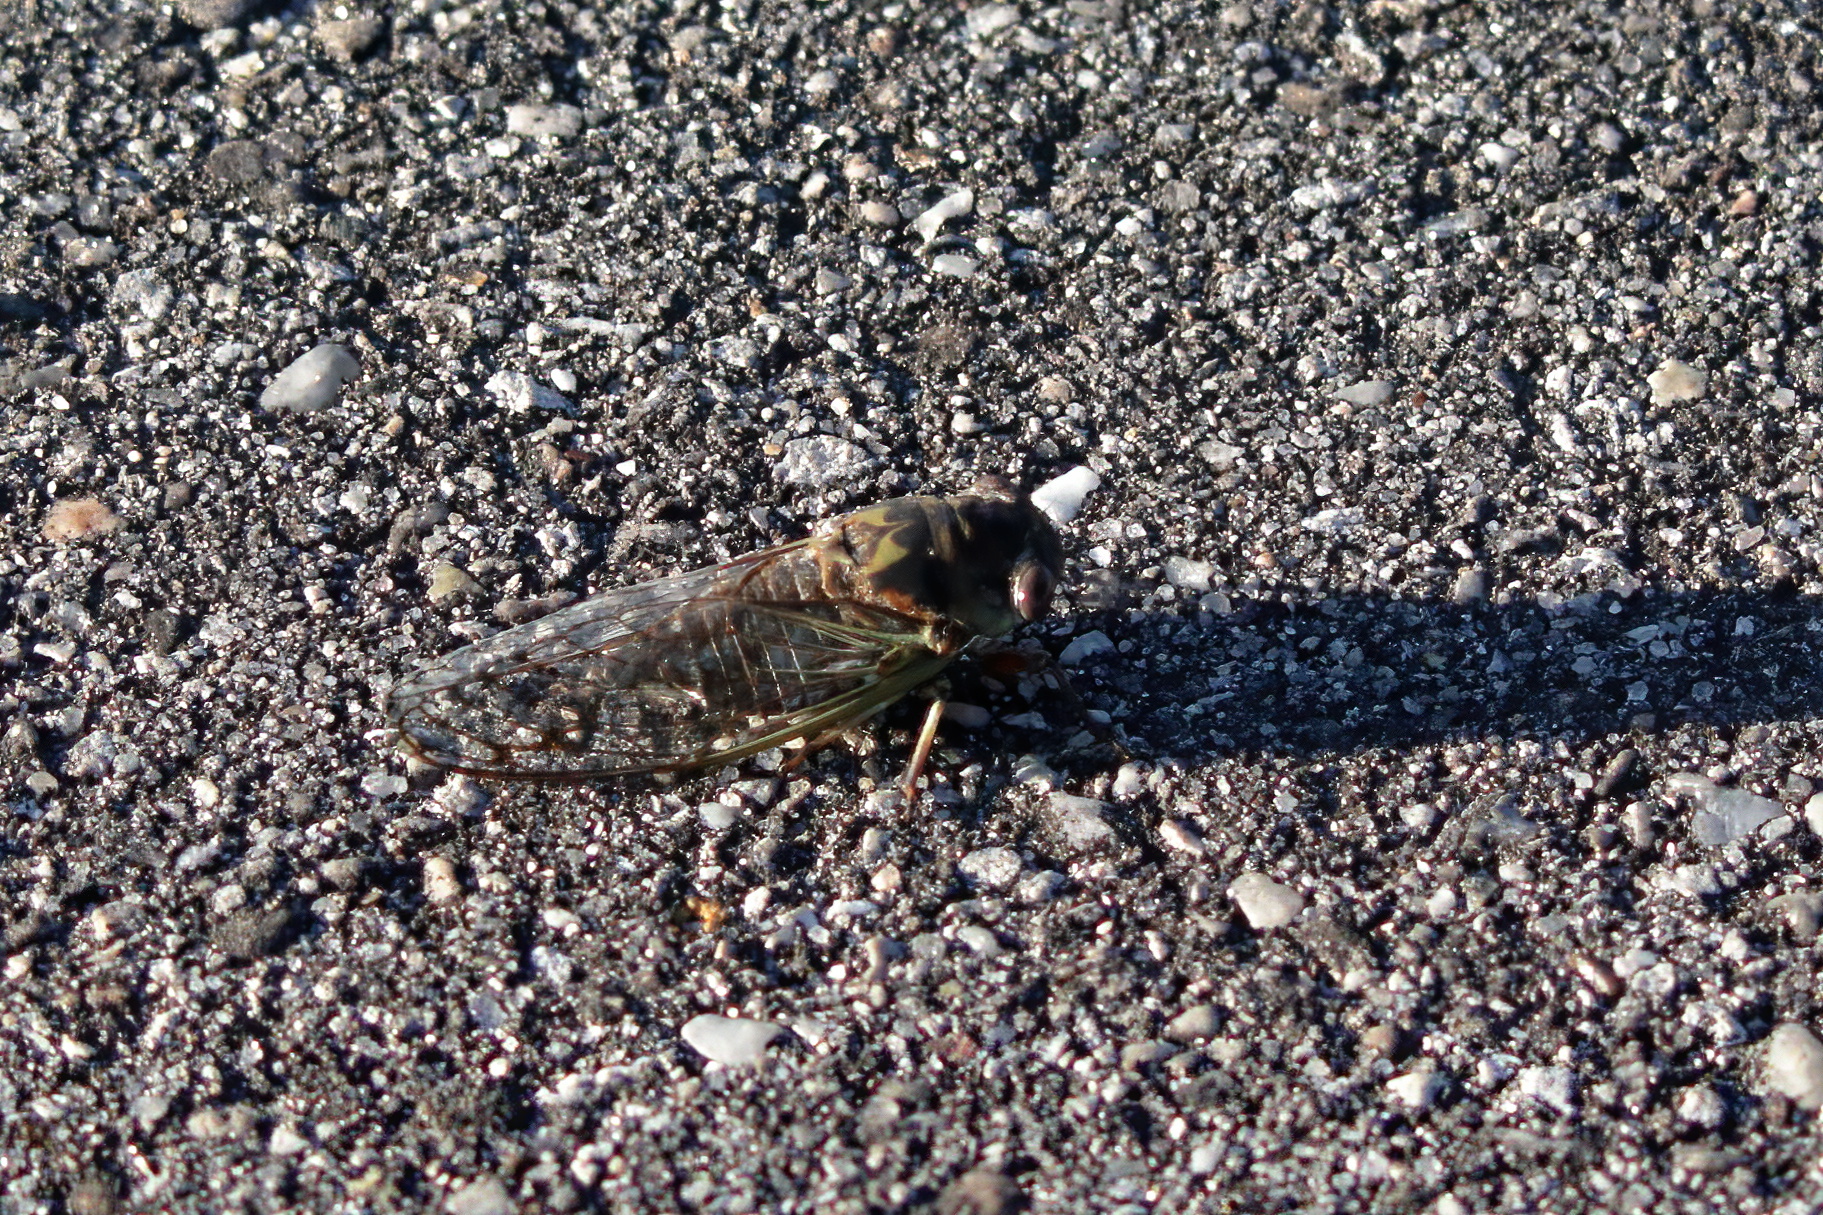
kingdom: Animalia
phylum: Arthropoda
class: Insecta
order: Hemiptera
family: Cicadidae
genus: Neotibicen
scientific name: Neotibicen davisi
